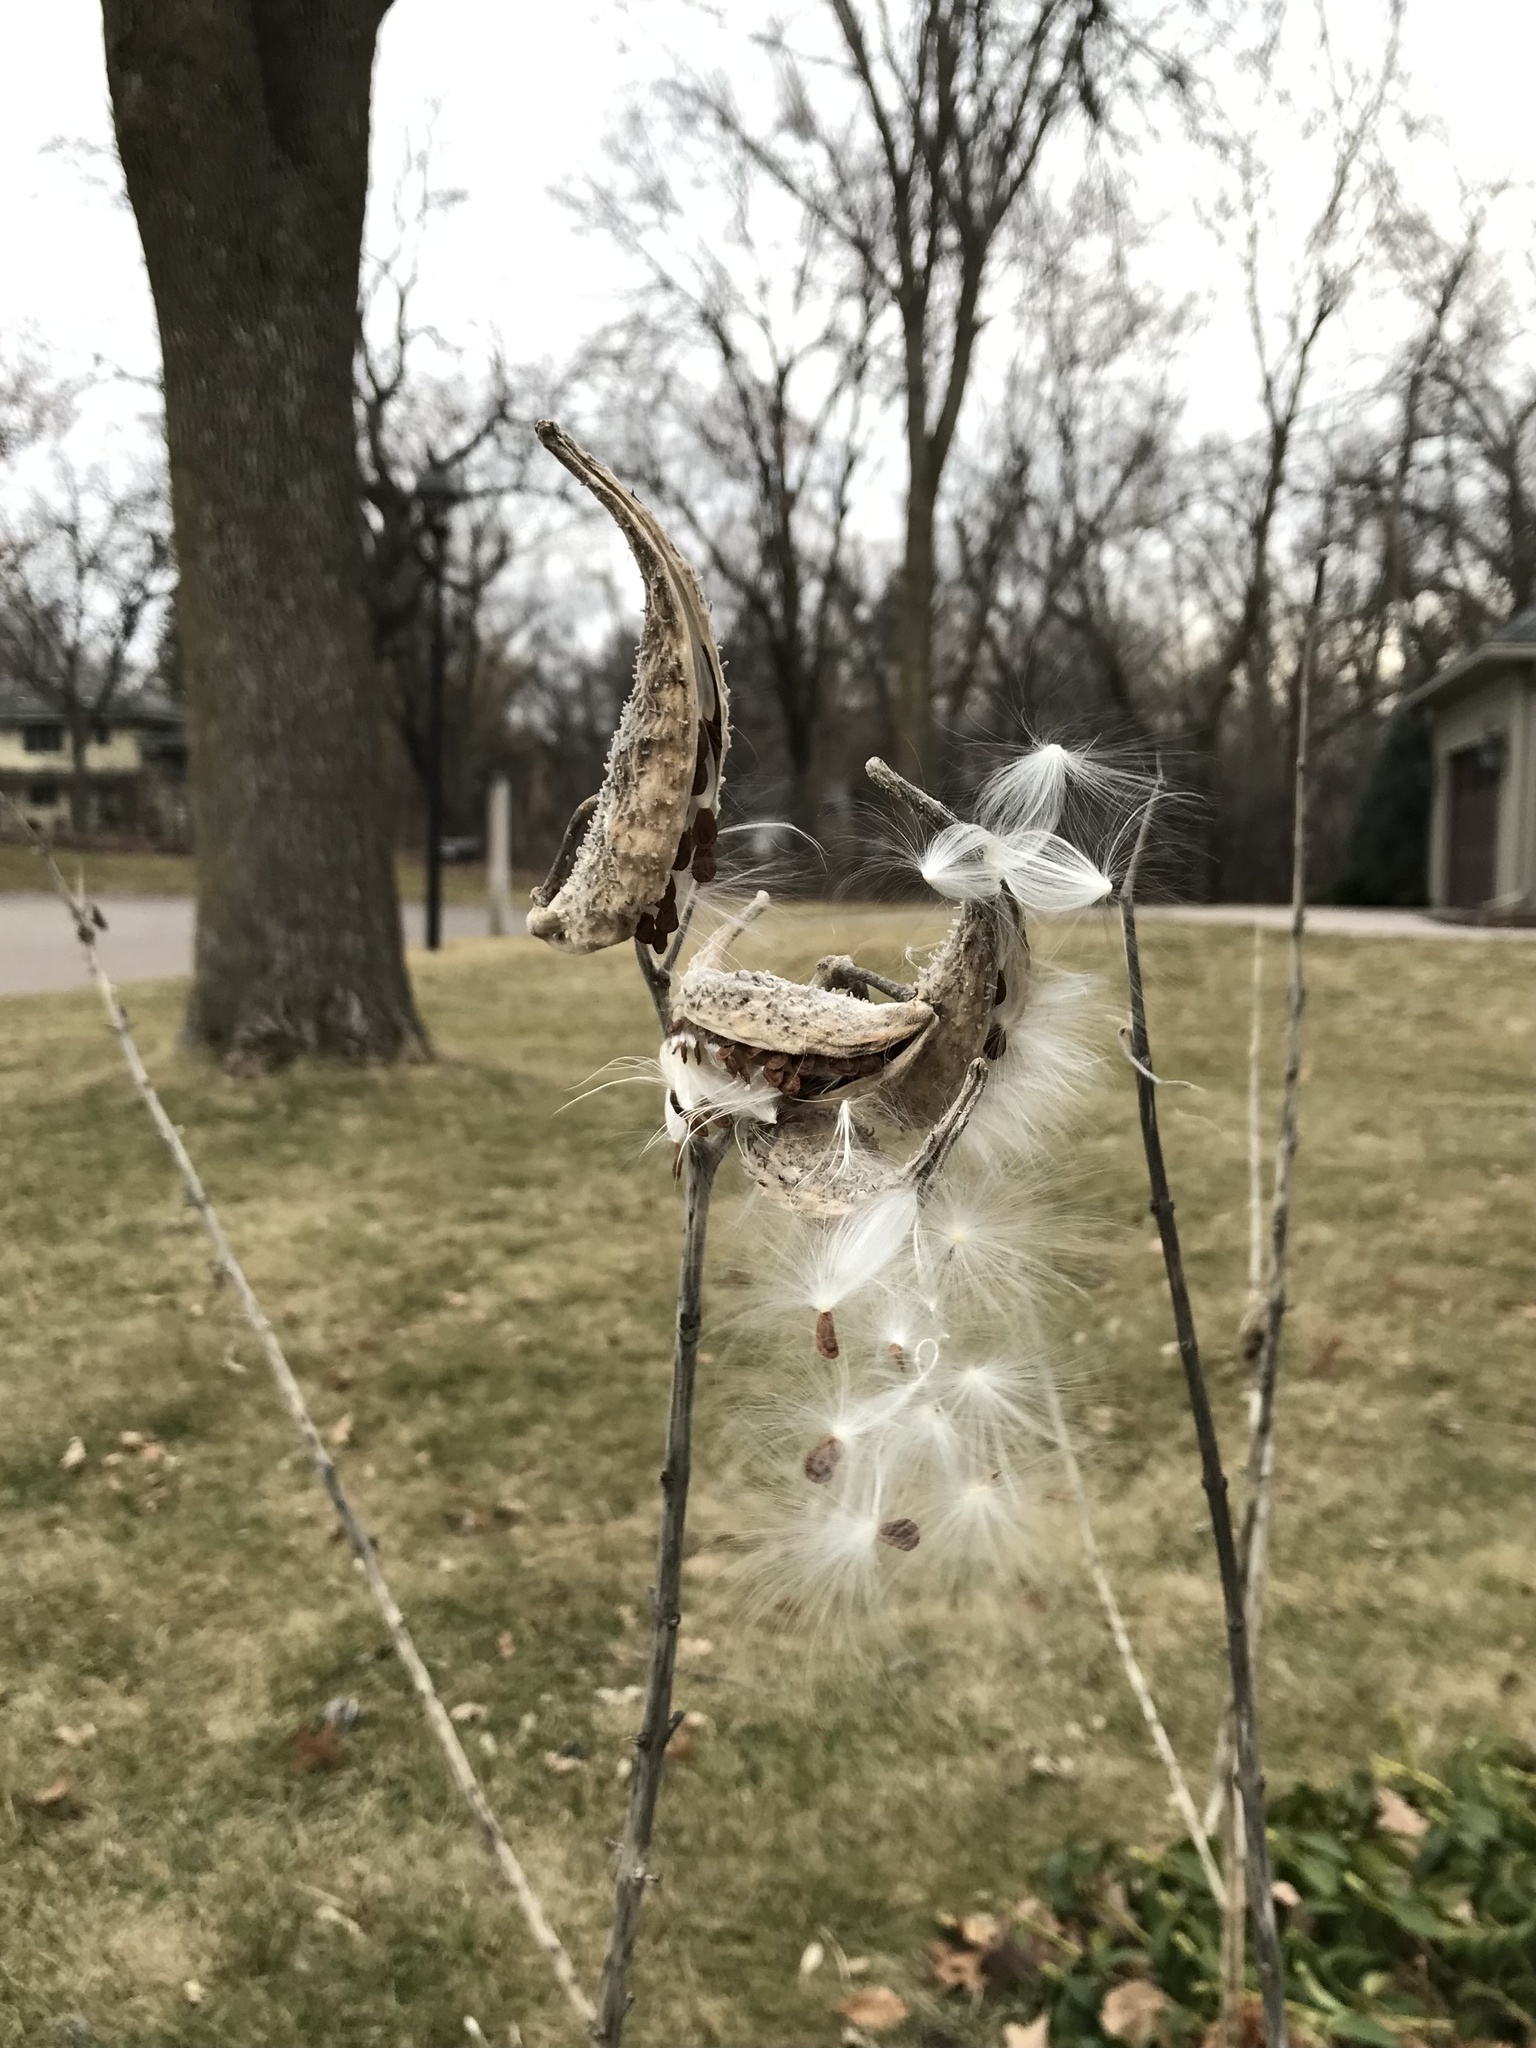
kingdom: Plantae
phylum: Tracheophyta
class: Magnoliopsida
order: Gentianales
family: Apocynaceae
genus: Asclepias
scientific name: Asclepias syriaca
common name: Common milkweed
